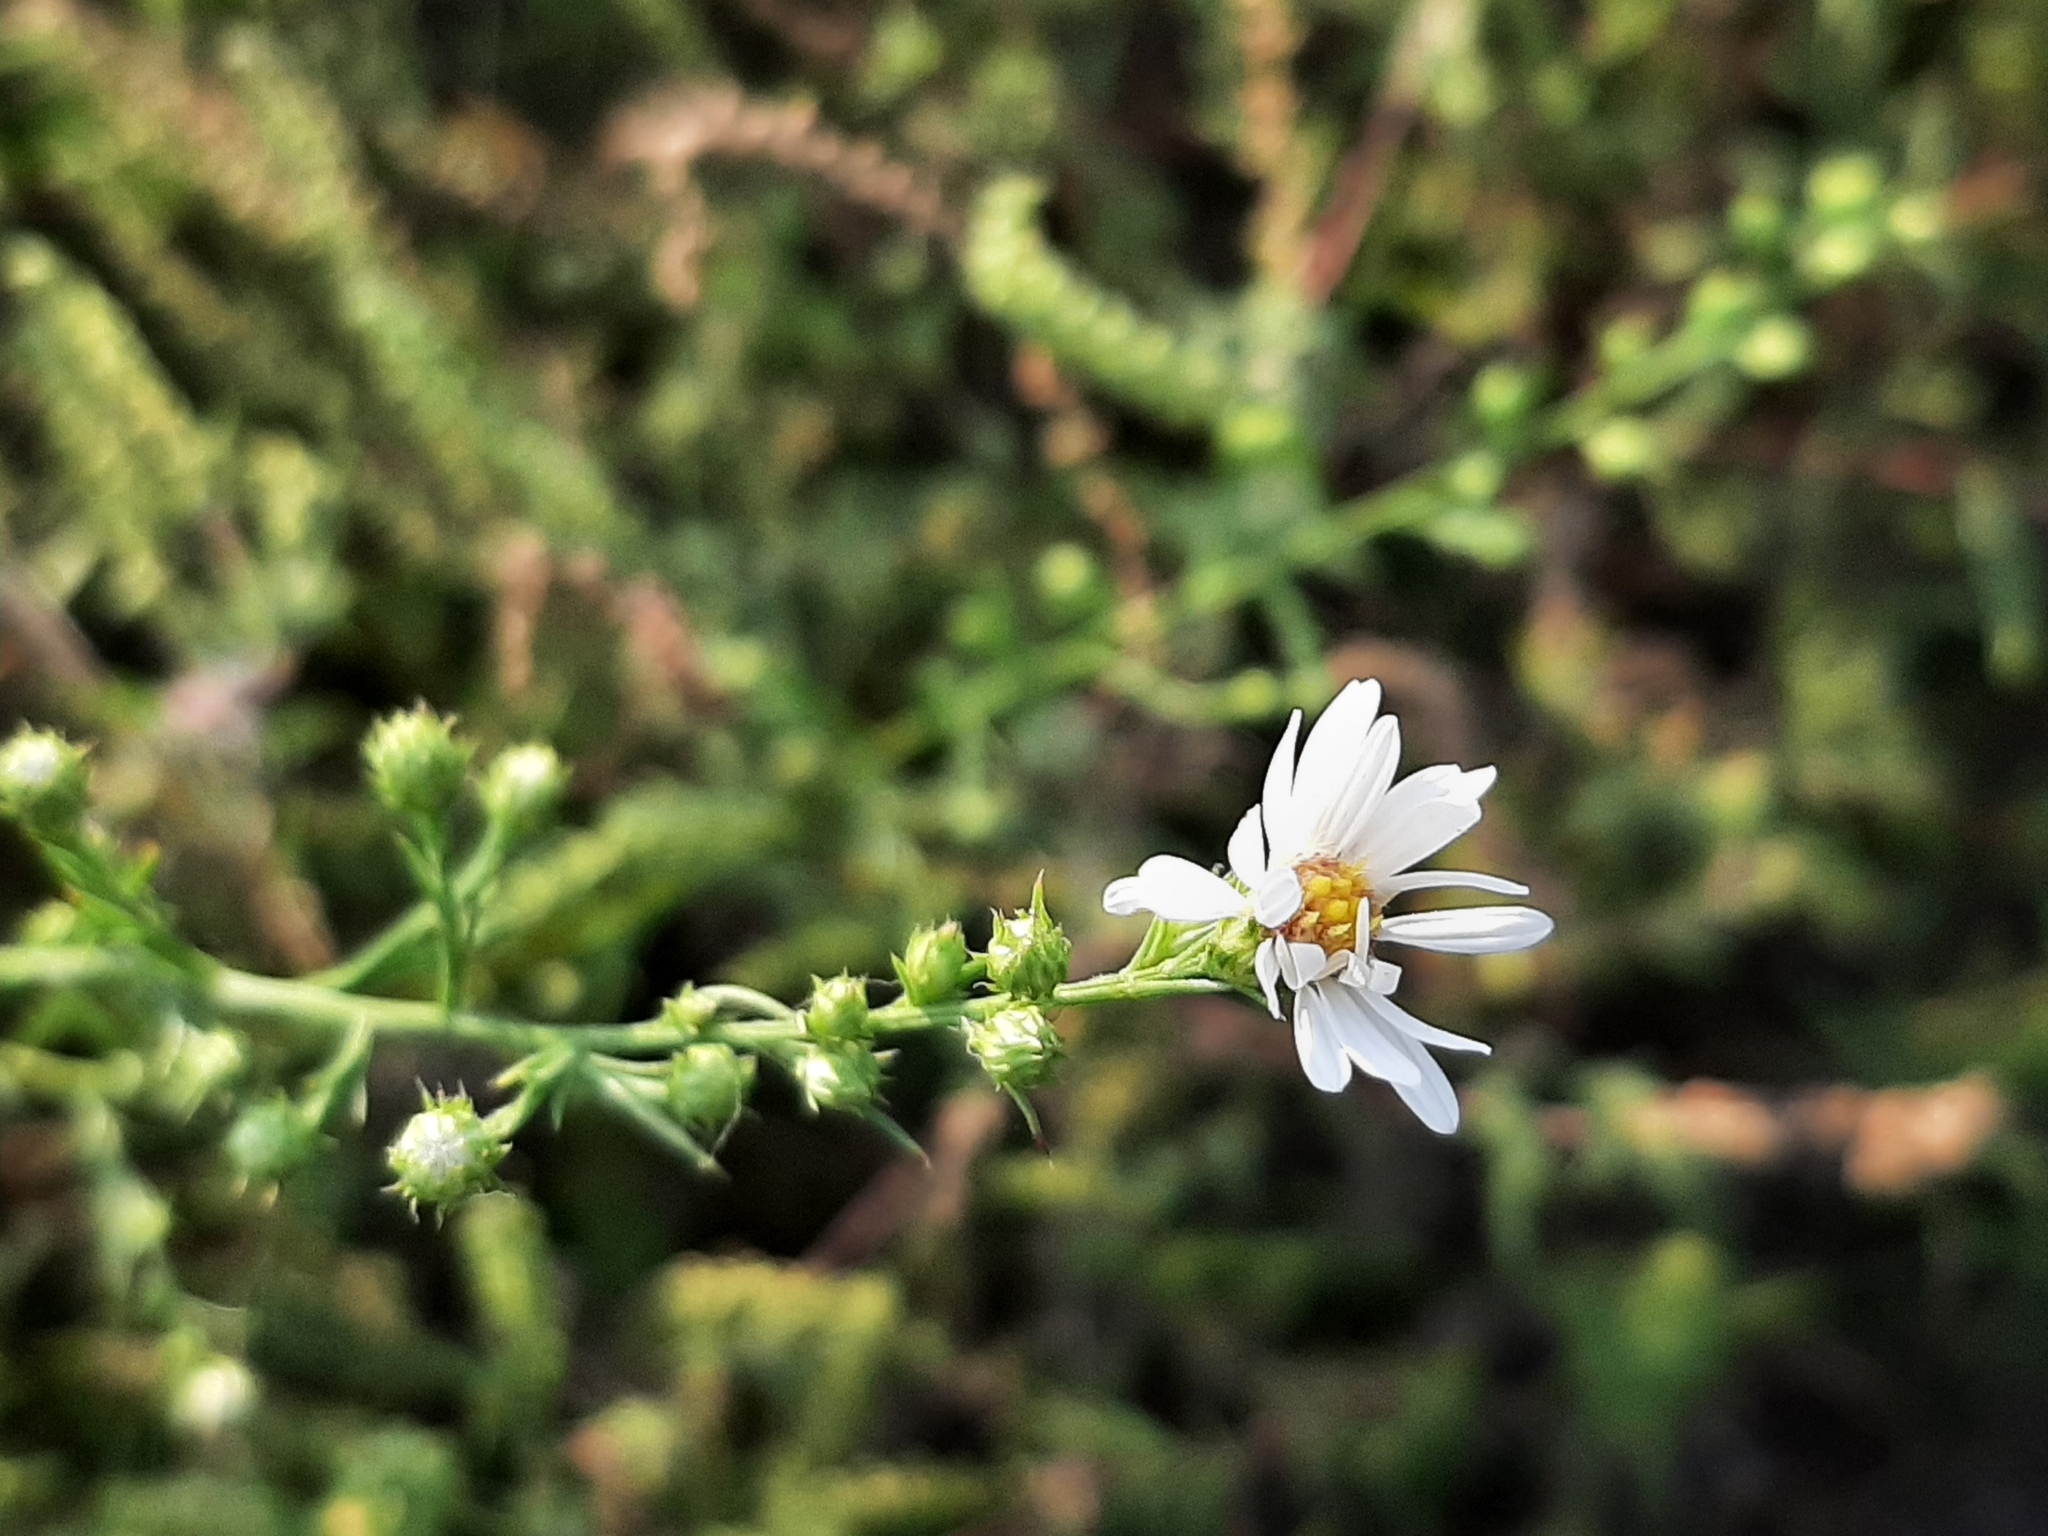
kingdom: Plantae
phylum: Tracheophyta
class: Magnoliopsida
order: Asterales
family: Asteraceae
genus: Symphyotrichum
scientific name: Symphyotrichum pilosum
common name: Awl aster
